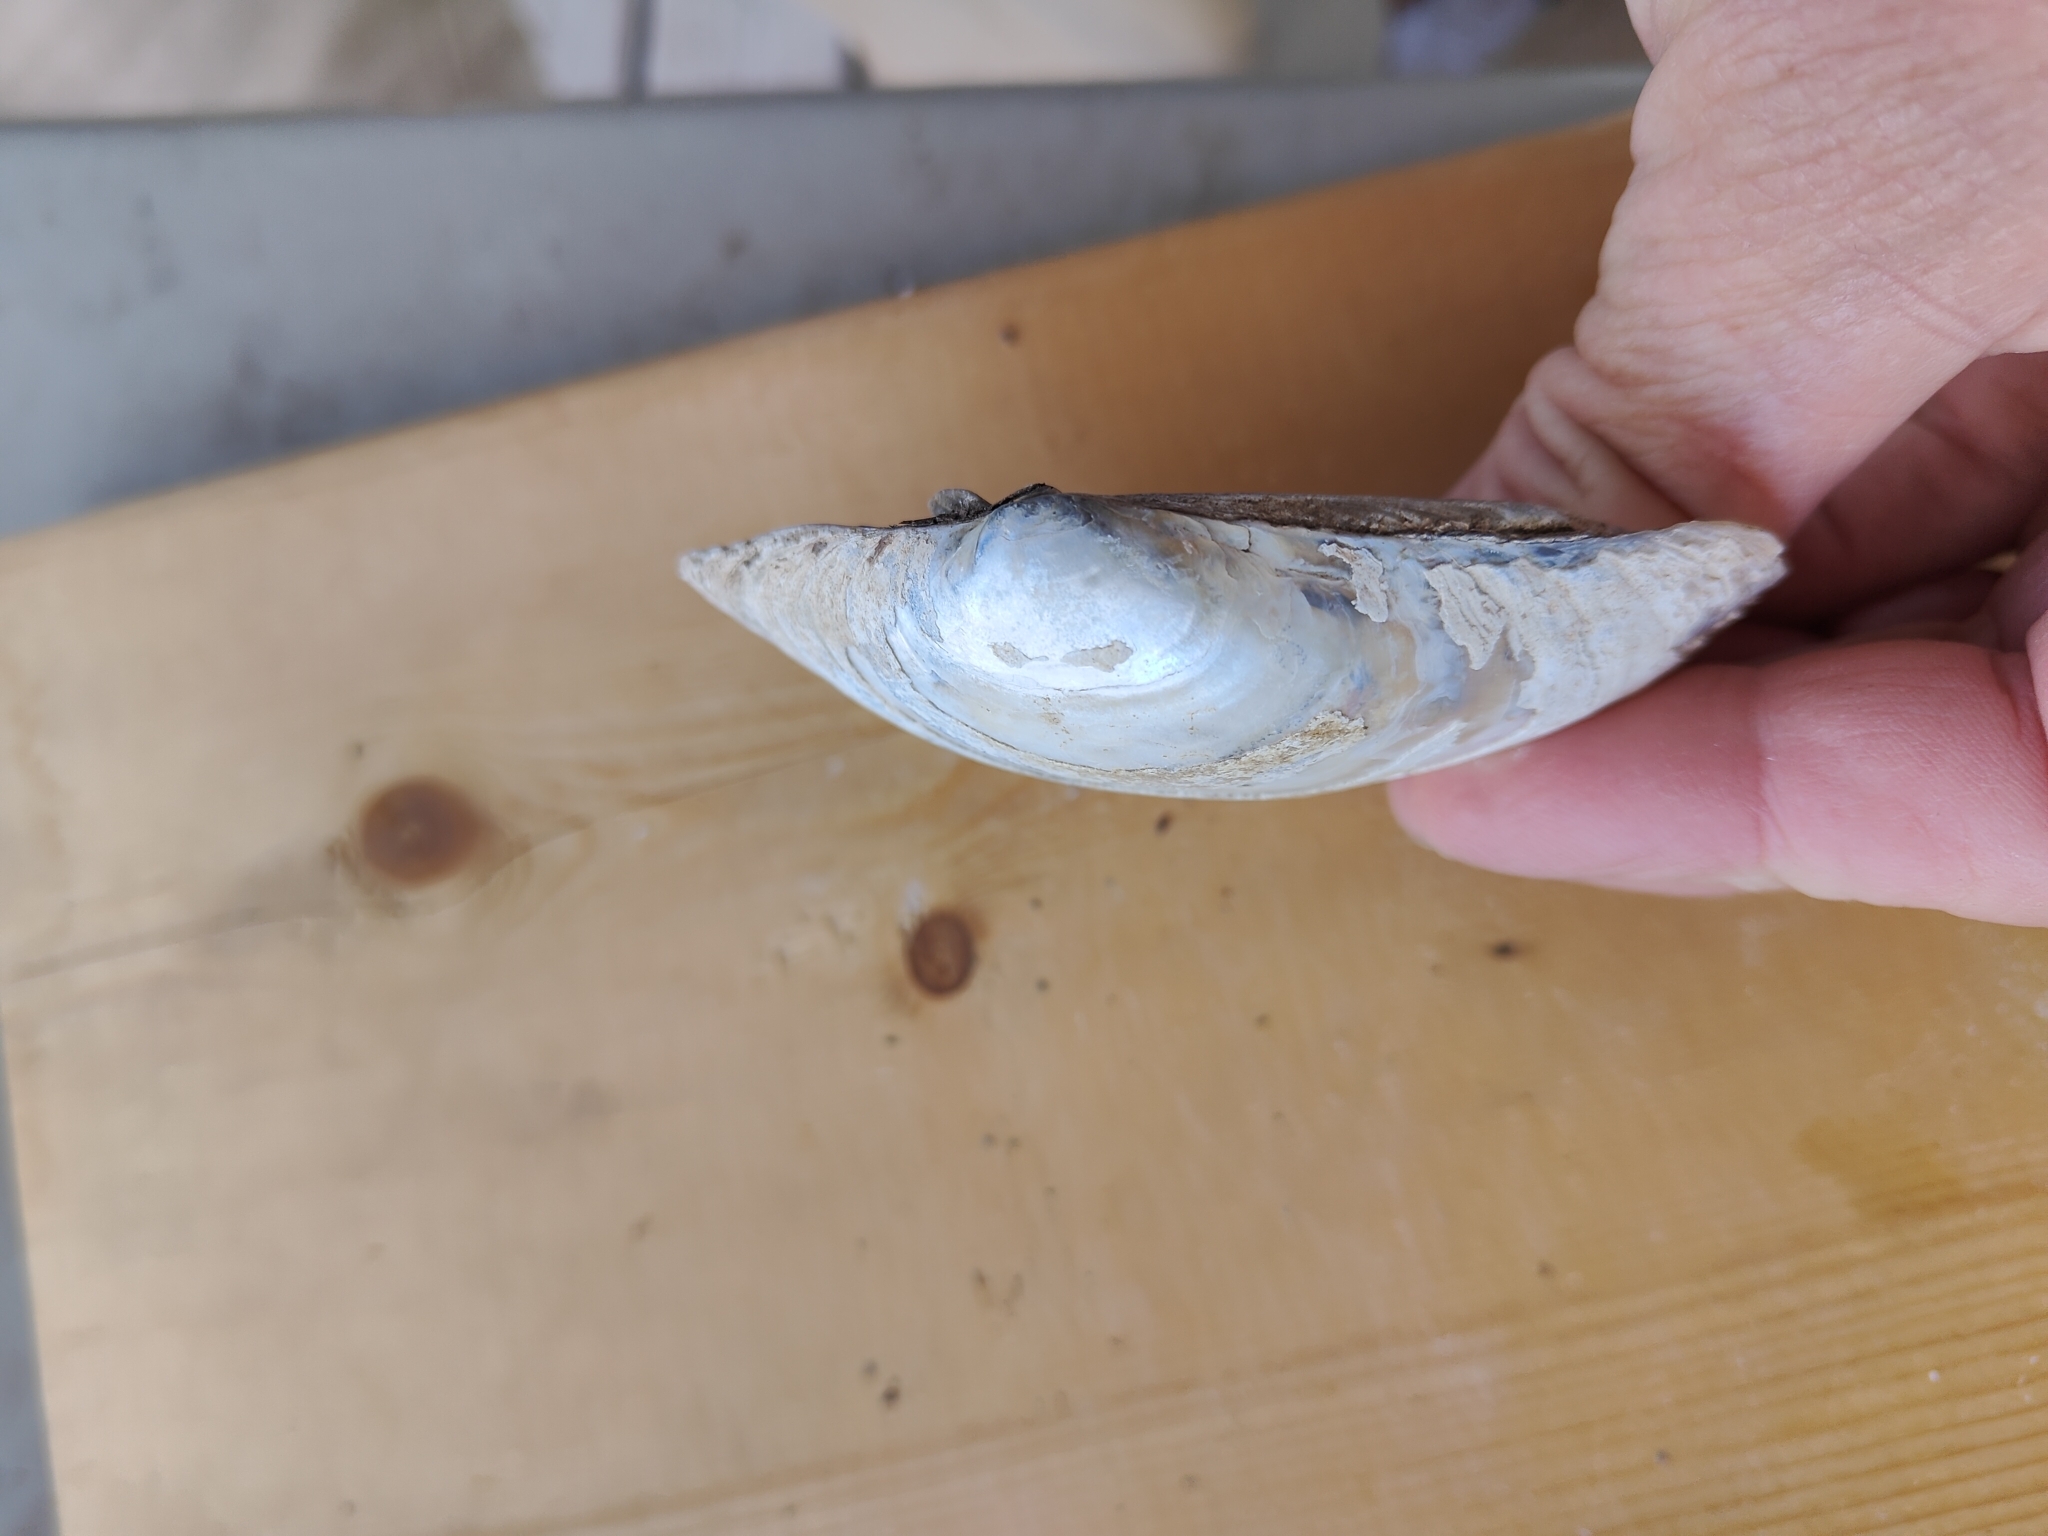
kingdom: Animalia
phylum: Mollusca
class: Bivalvia
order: Unionida
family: Unionidae
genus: Lampsilis
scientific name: Lampsilis cardium
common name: Plain pocketbook
